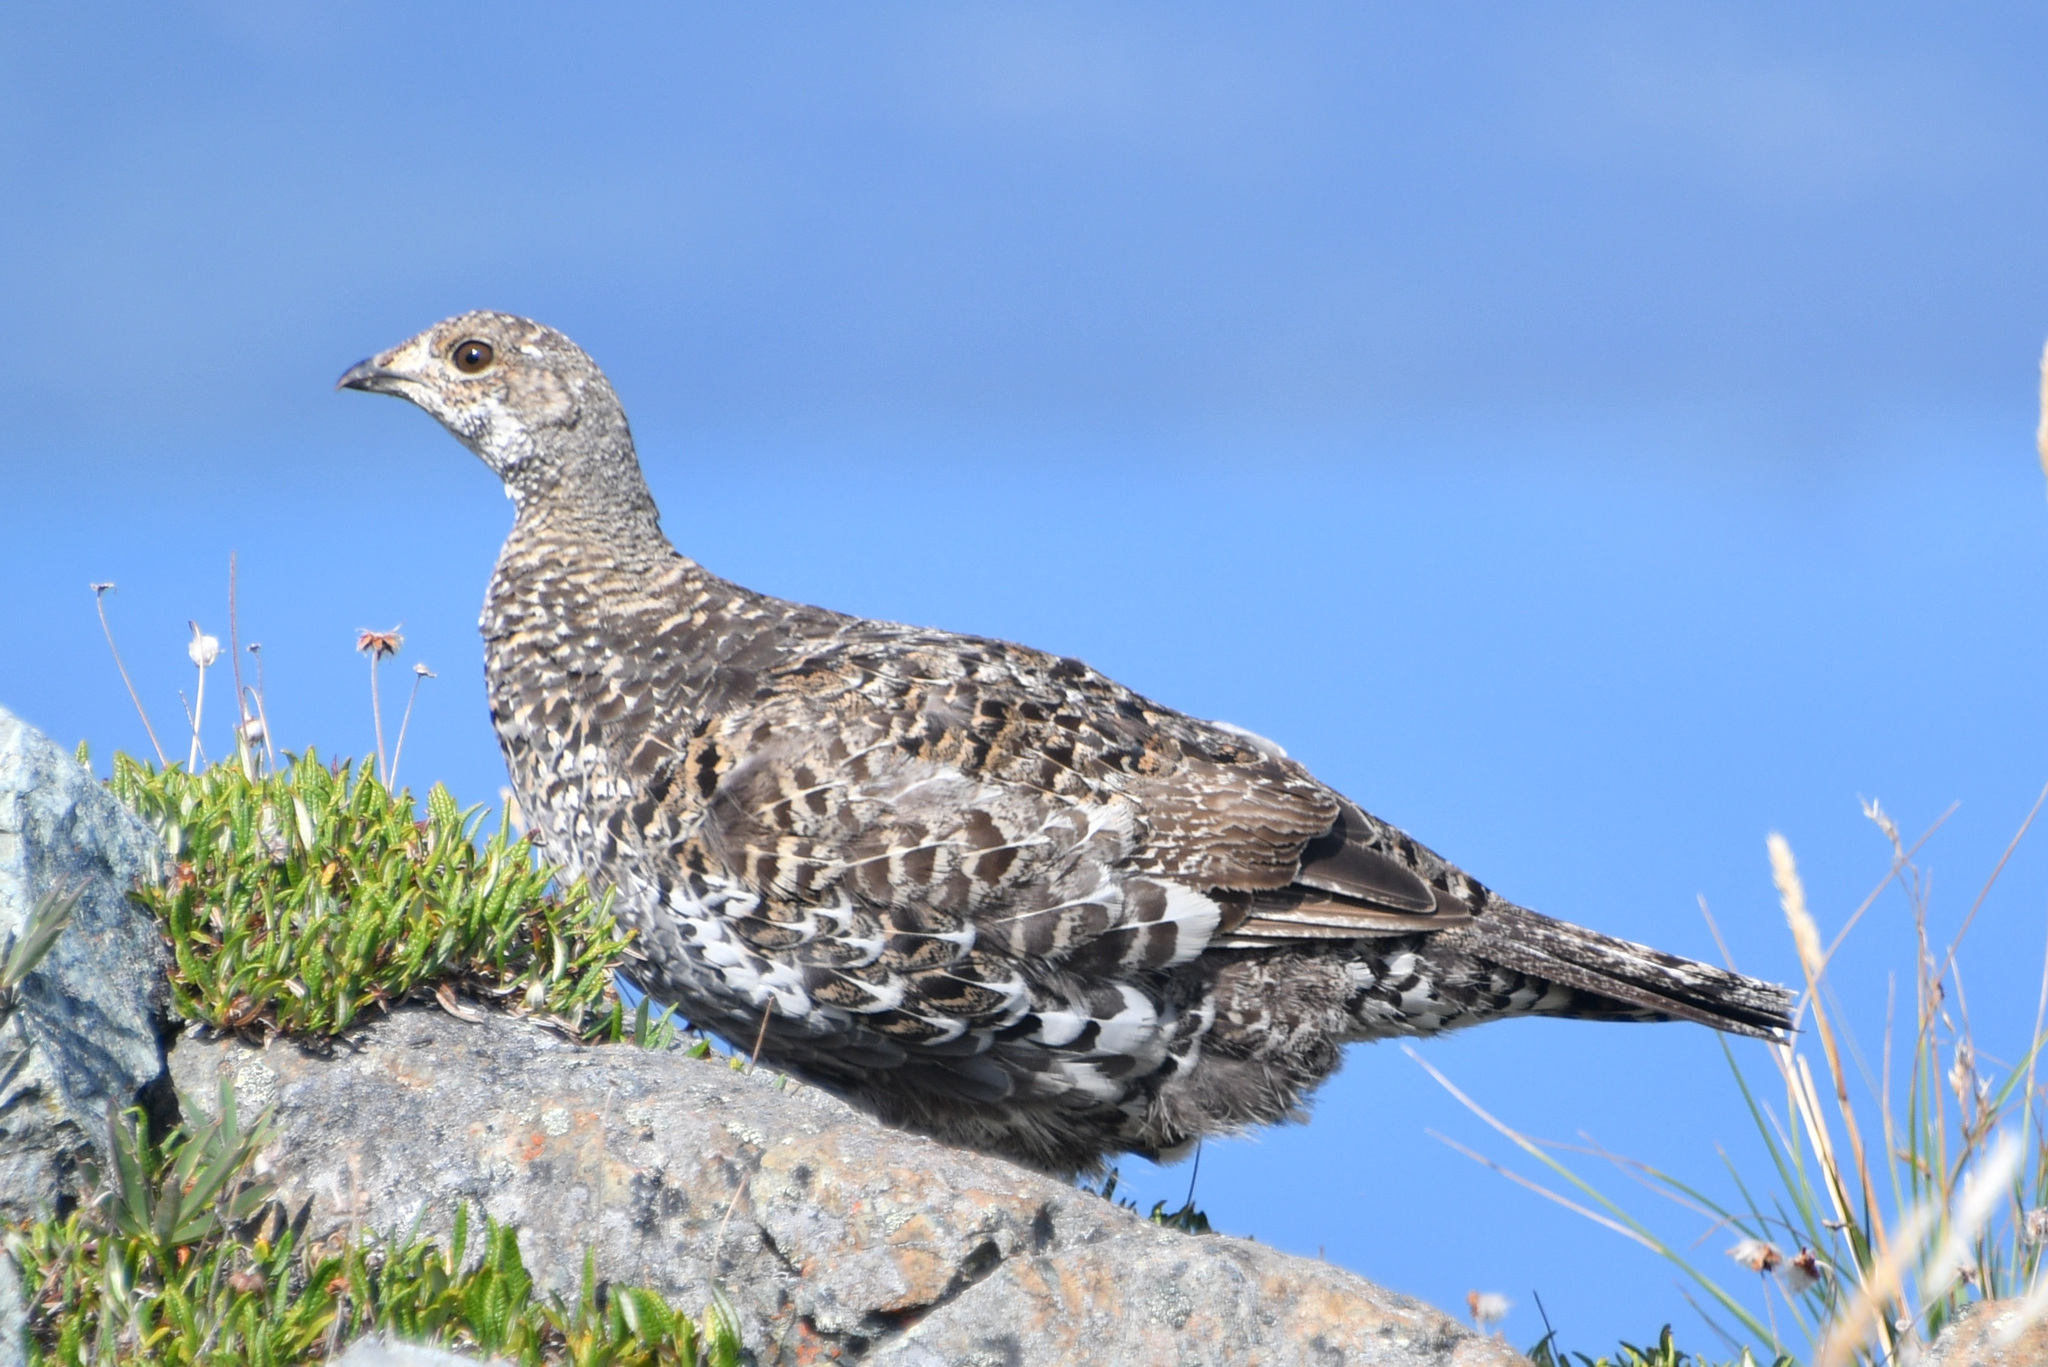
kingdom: Animalia
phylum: Chordata
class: Aves
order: Galliformes
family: Phasianidae
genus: Dendragapus
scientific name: Dendragapus obscurus
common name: Dusky grouse
